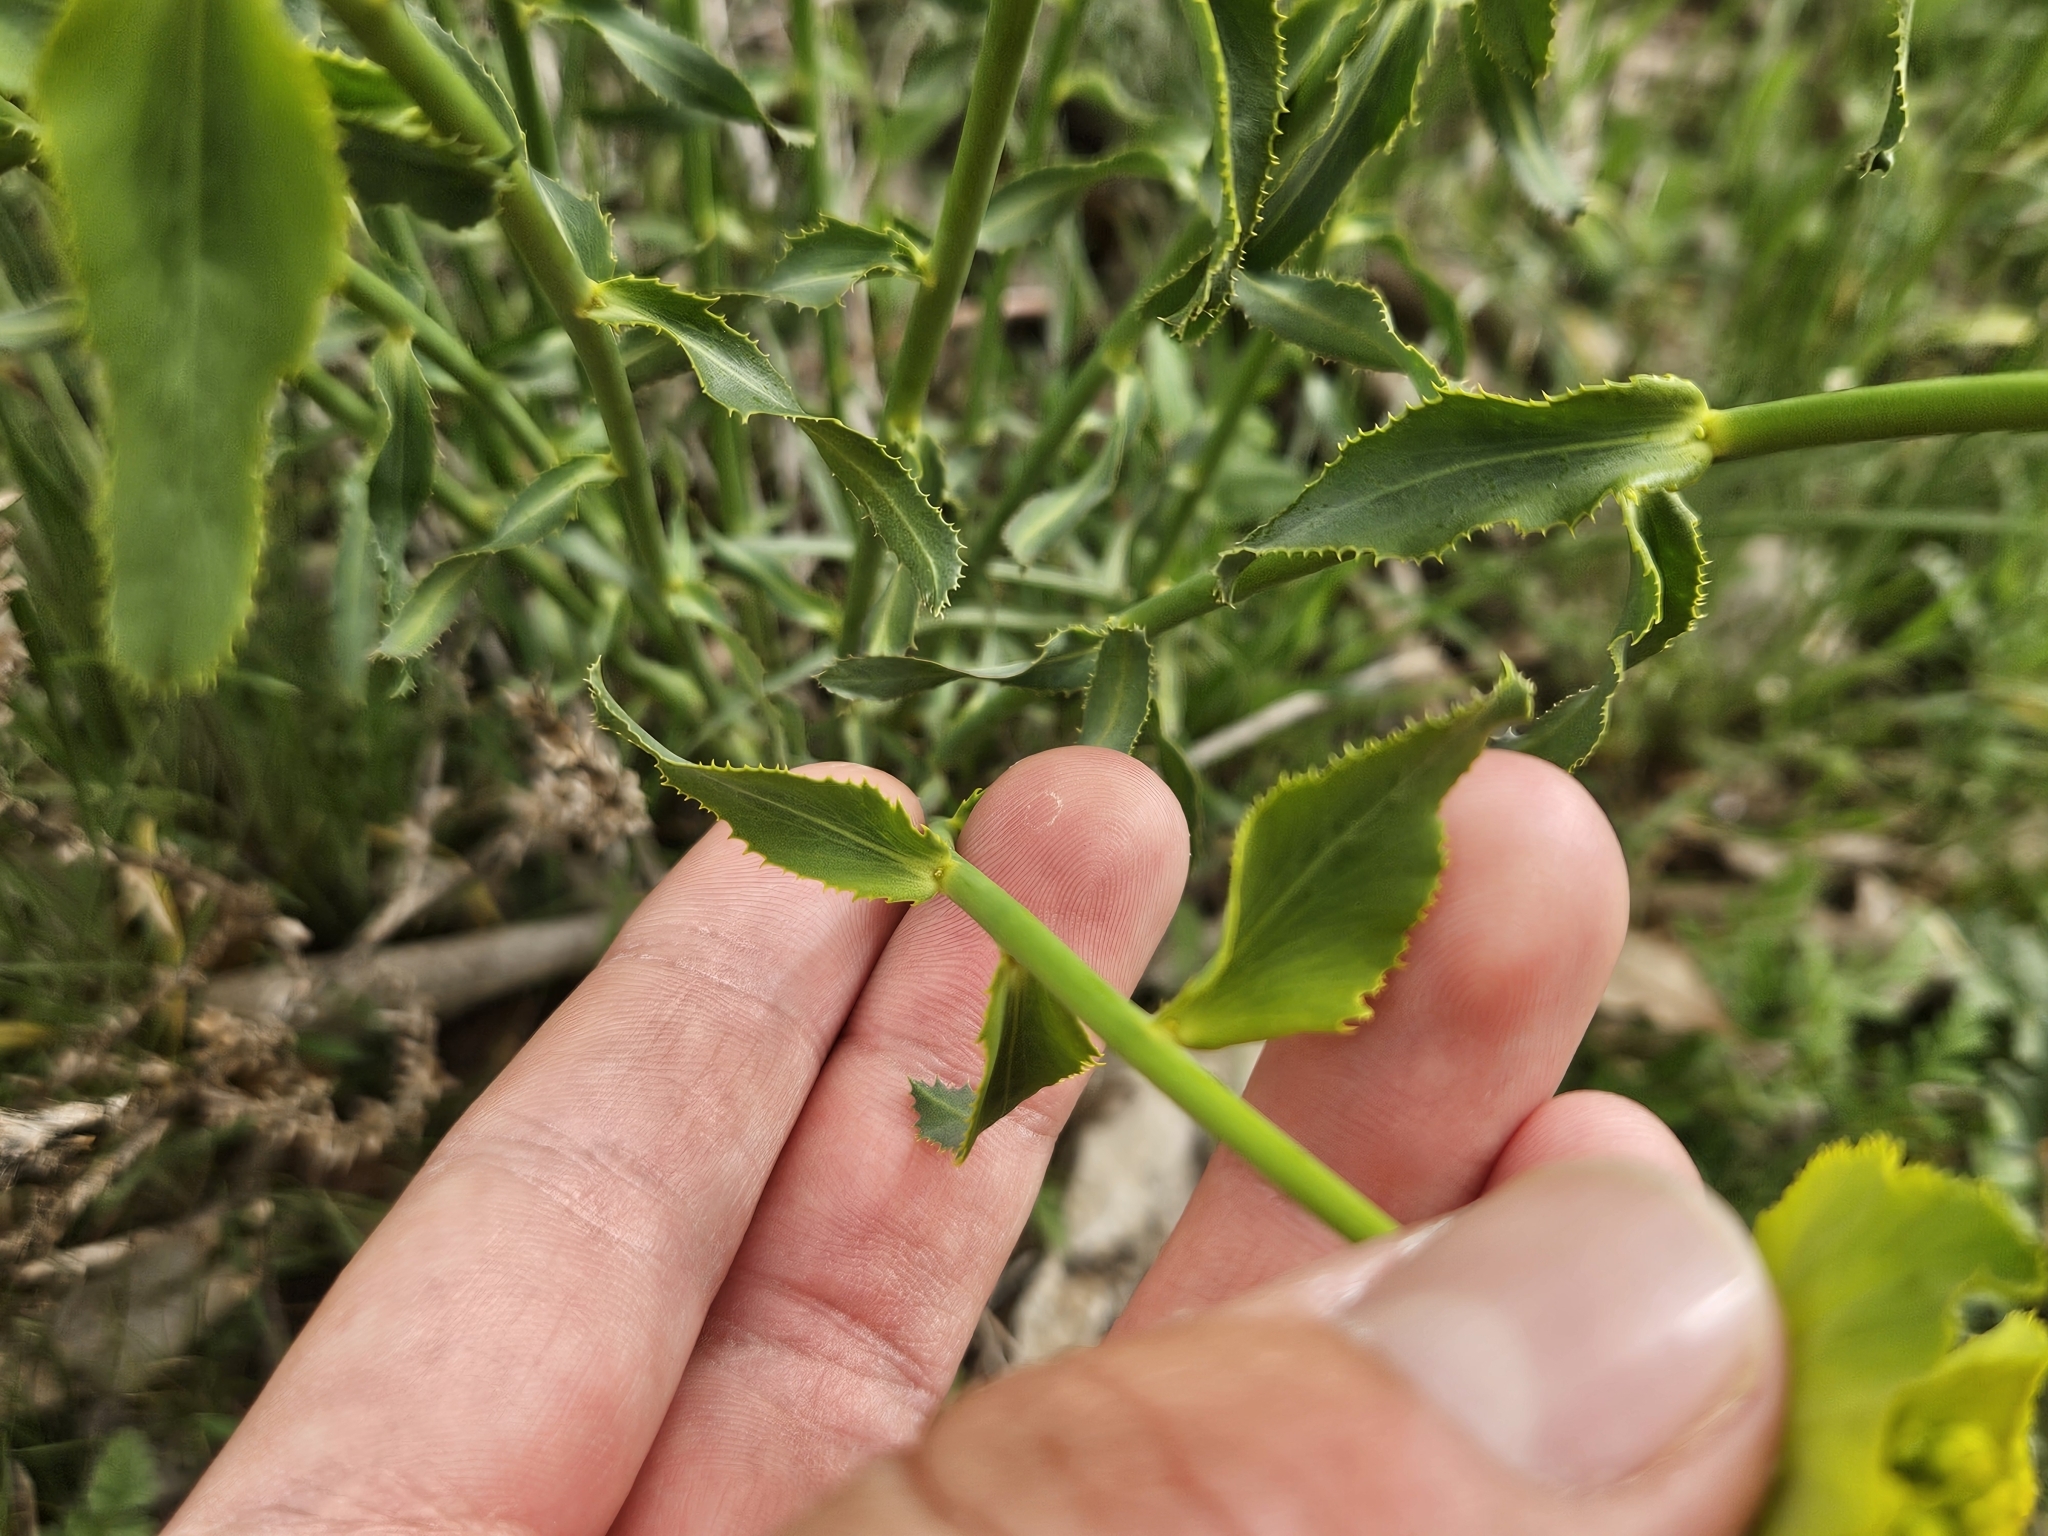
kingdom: Plantae
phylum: Tracheophyta
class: Magnoliopsida
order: Malpighiales
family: Euphorbiaceae
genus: Euphorbia
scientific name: Euphorbia serrata
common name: Serrate spurge
